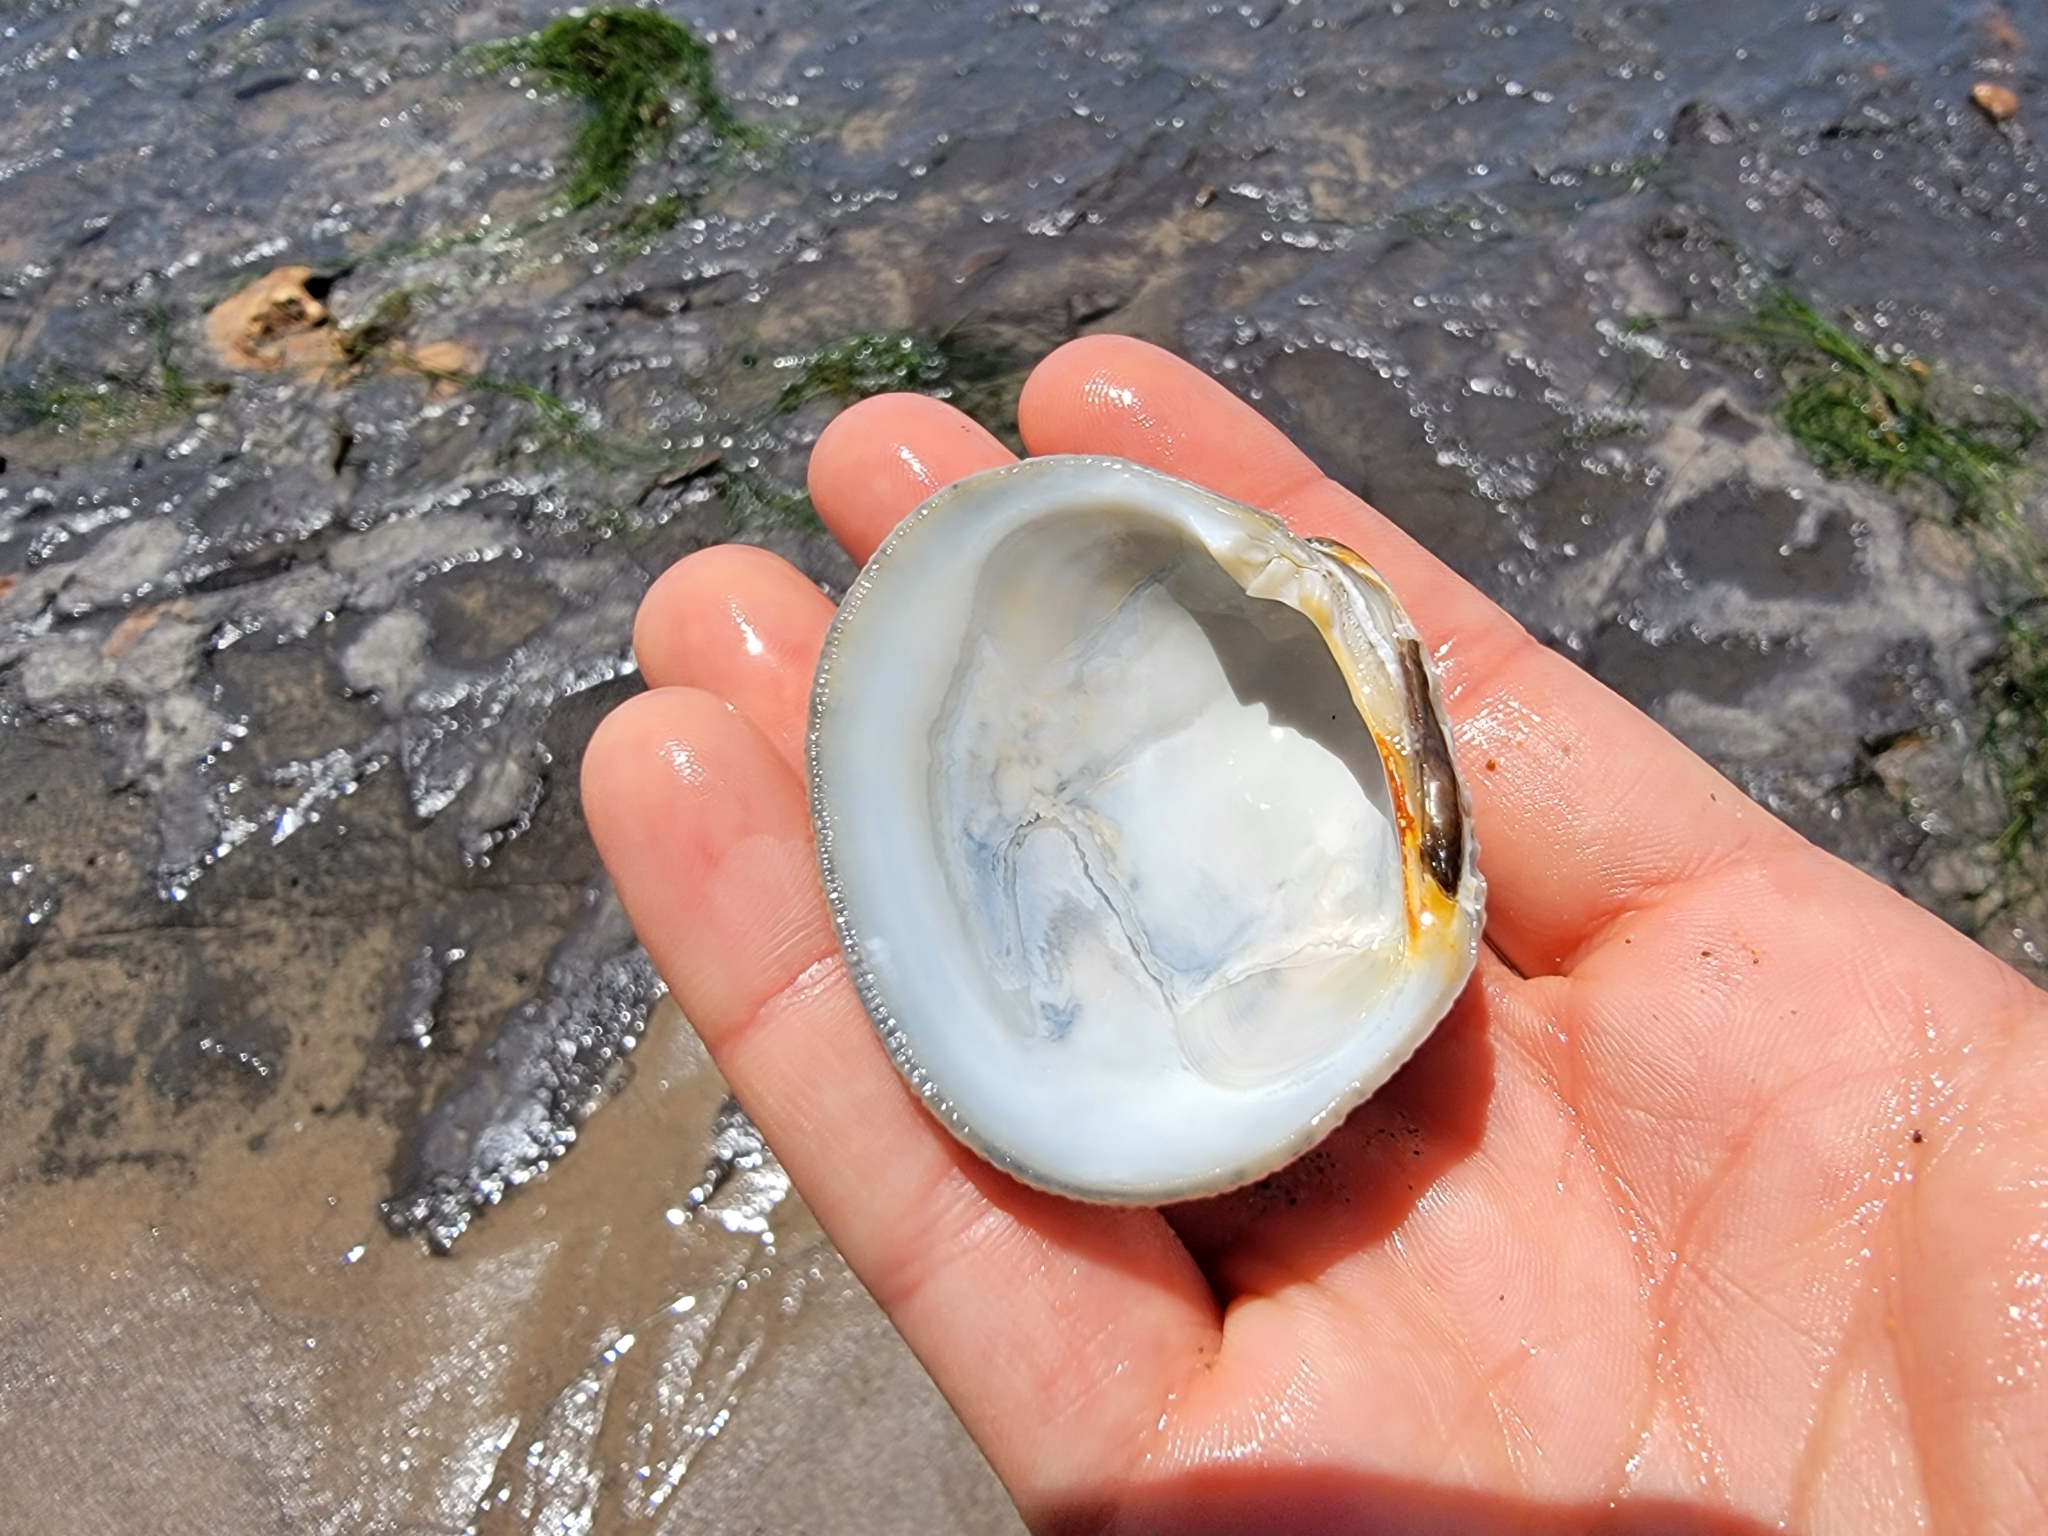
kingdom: Animalia
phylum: Mollusca
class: Bivalvia
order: Venerida
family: Veneridae
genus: Leukoma
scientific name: Leukoma staminea
